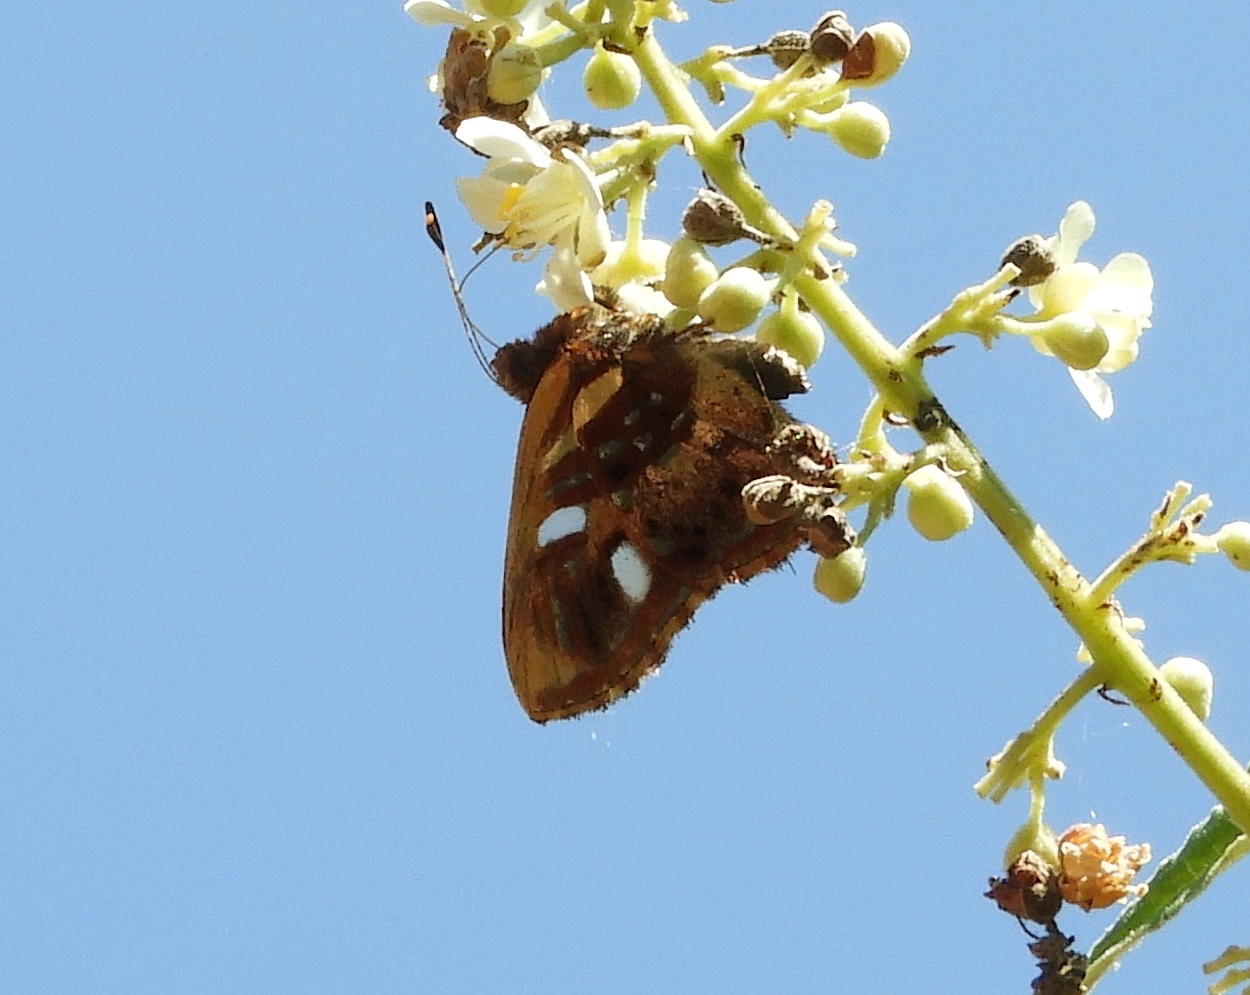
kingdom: Animalia
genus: Anteros
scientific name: Anteros carausius
